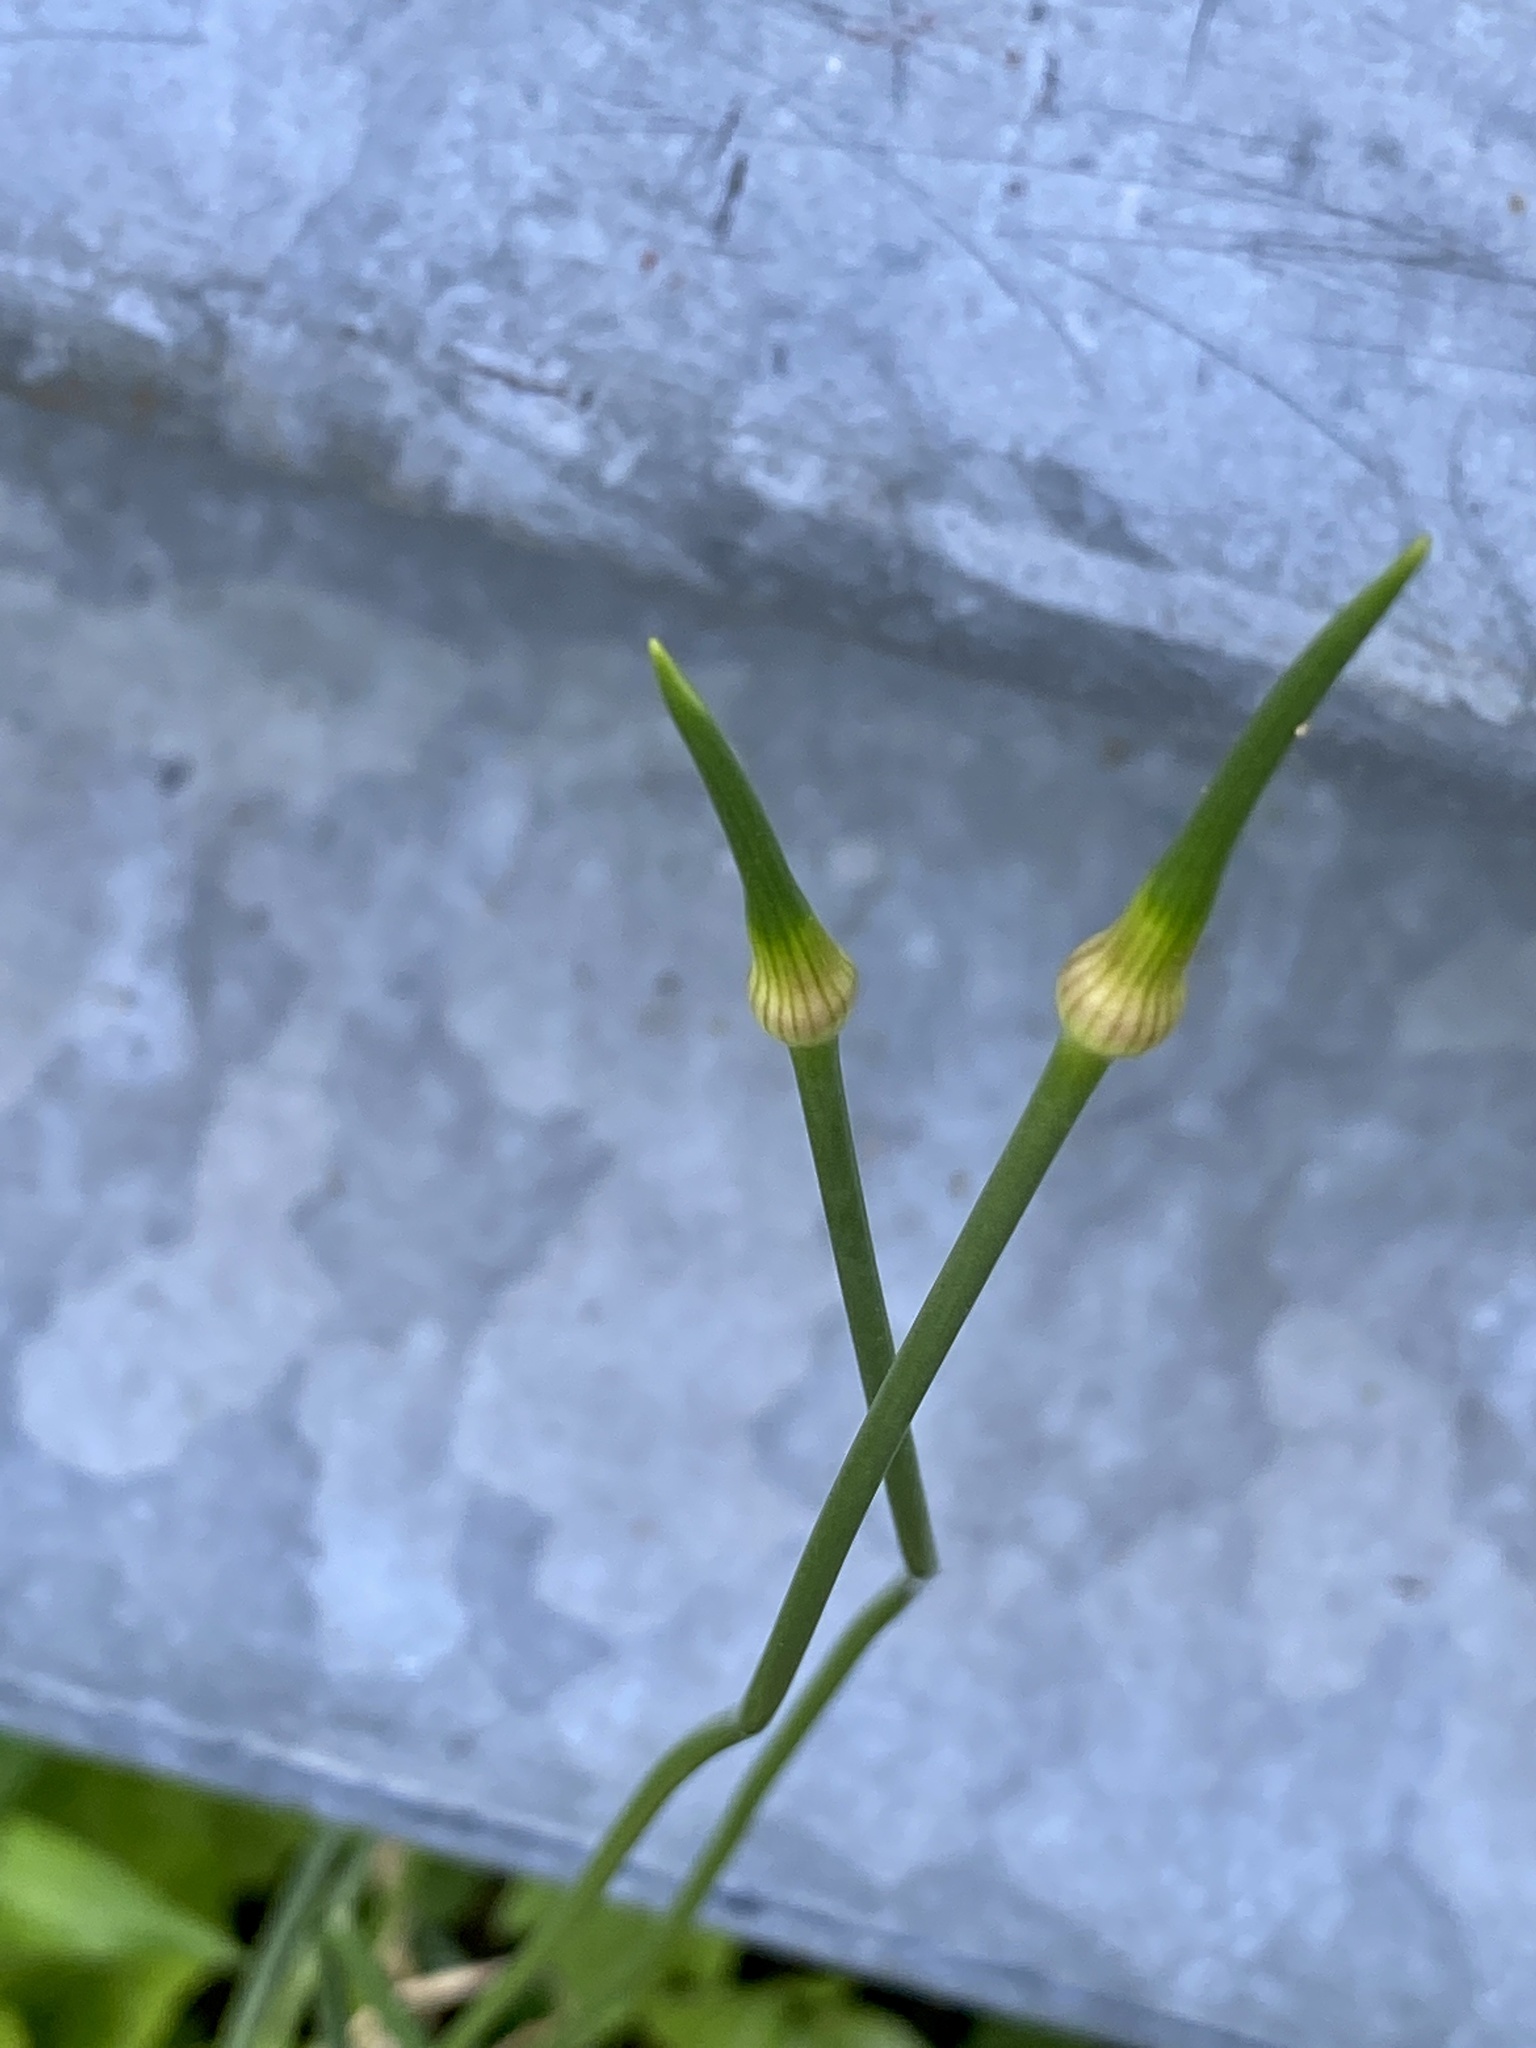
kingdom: Plantae
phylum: Tracheophyta
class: Liliopsida
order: Asparagales
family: Amaryllidaceae
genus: Allium
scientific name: Allium vineale
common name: Crow garlic
